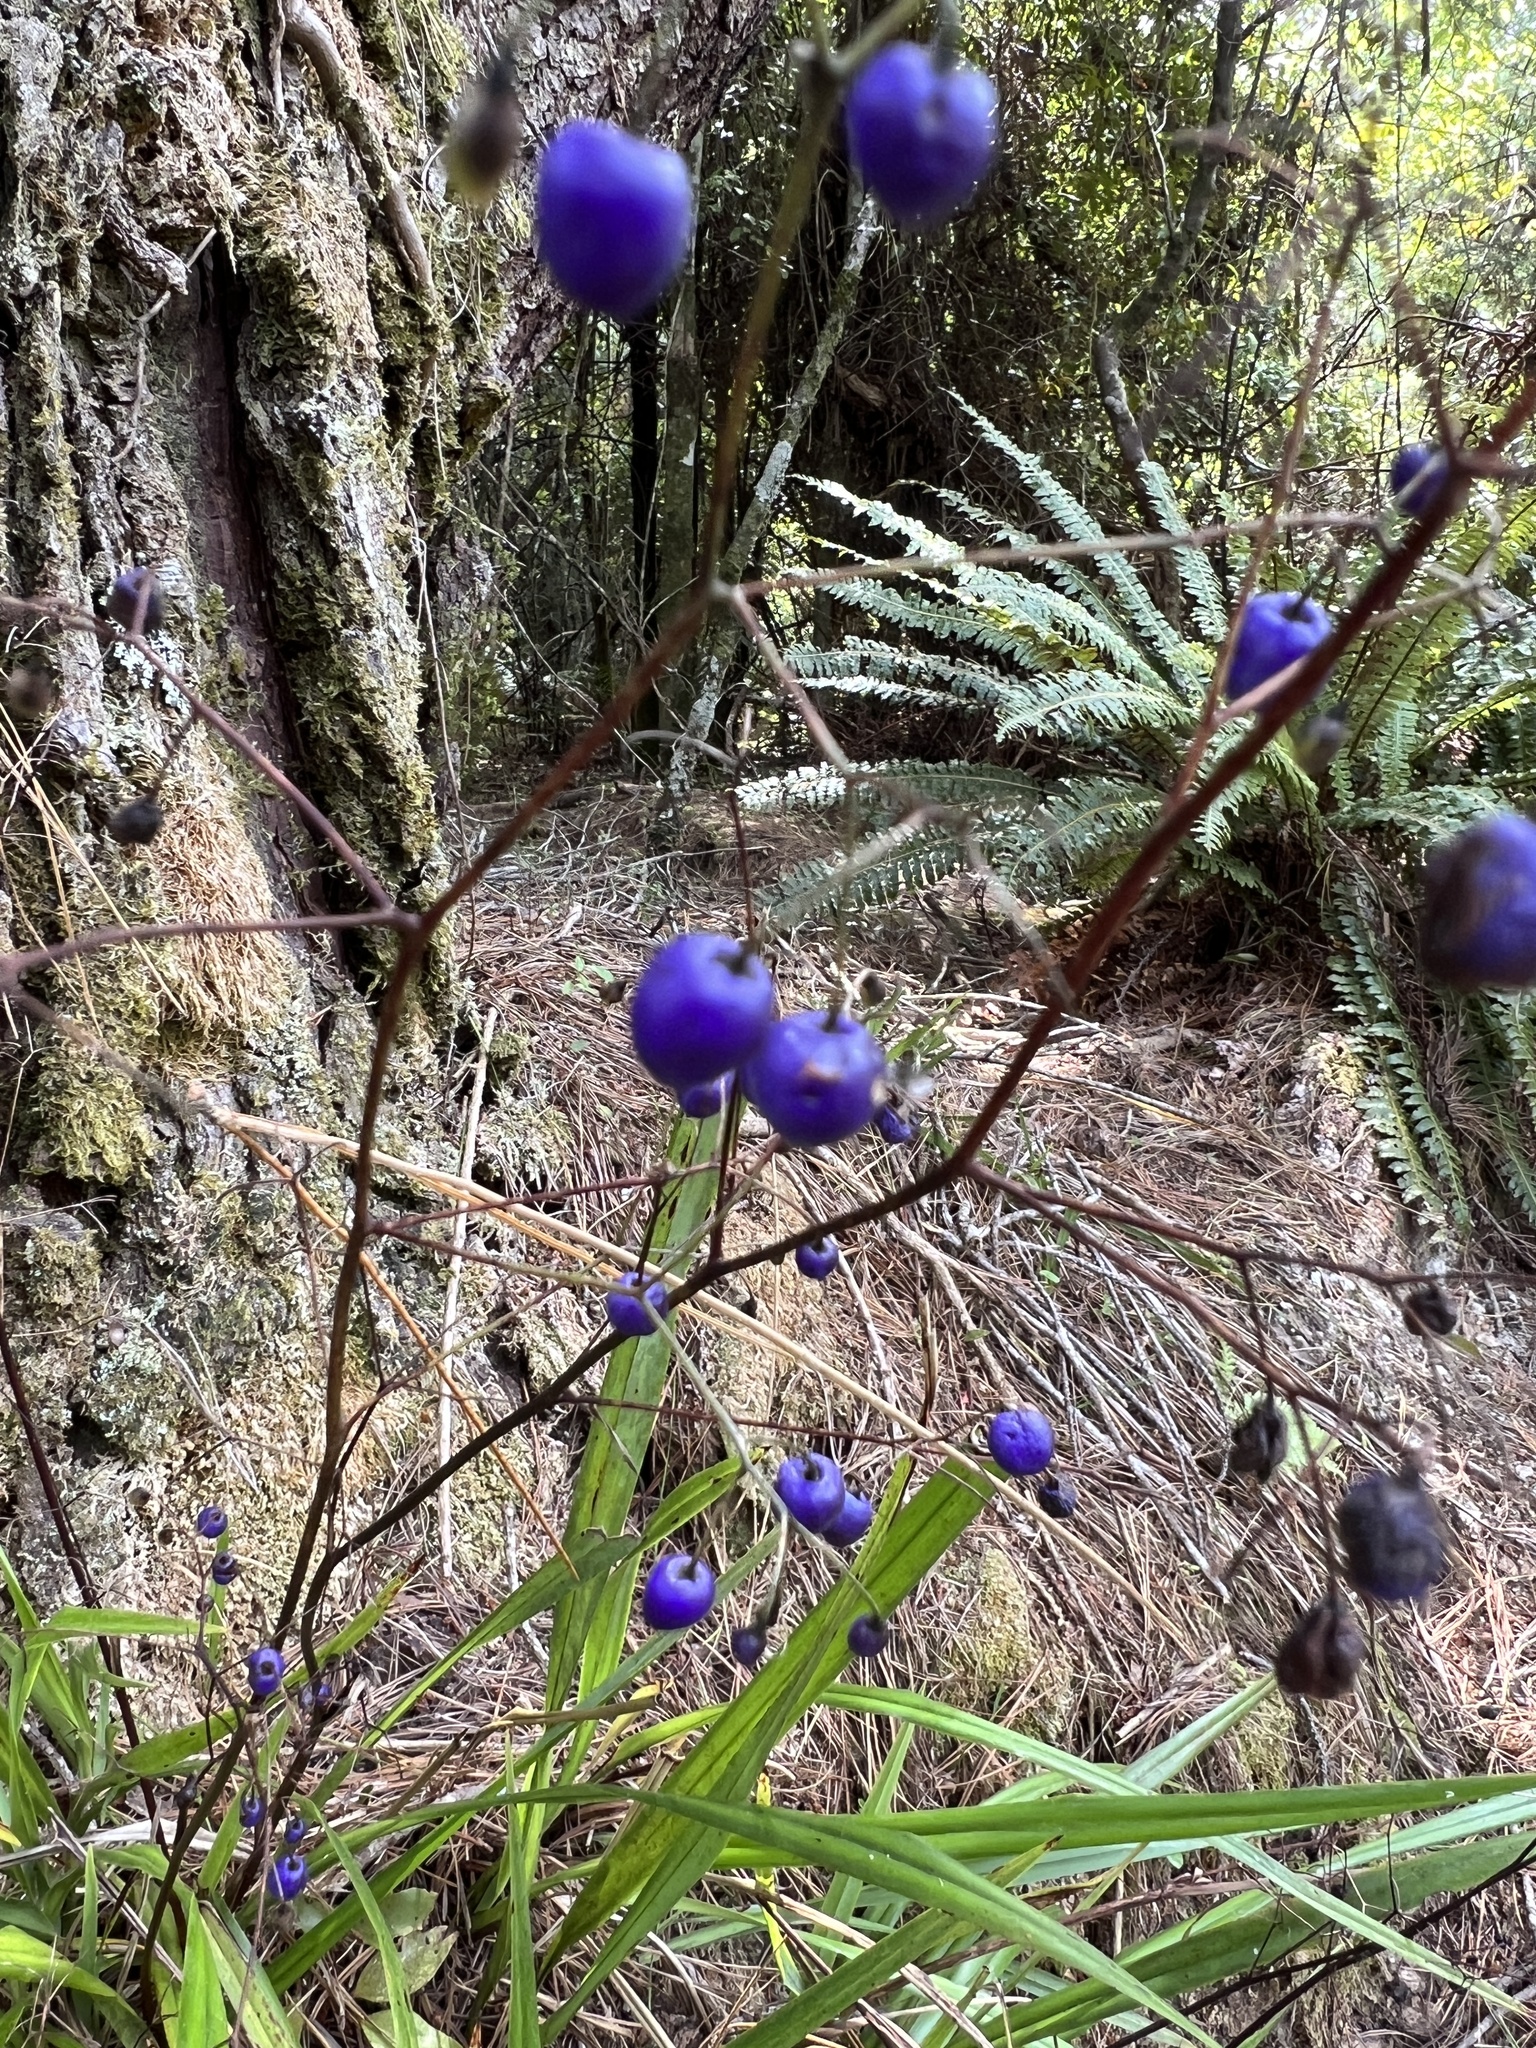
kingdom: Plantae
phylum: Tracheophyta
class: Liliopsida
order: Asparagales
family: Asphodelaceae
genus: Dianella
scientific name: Dianella nigra
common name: New zealand-blueberry
